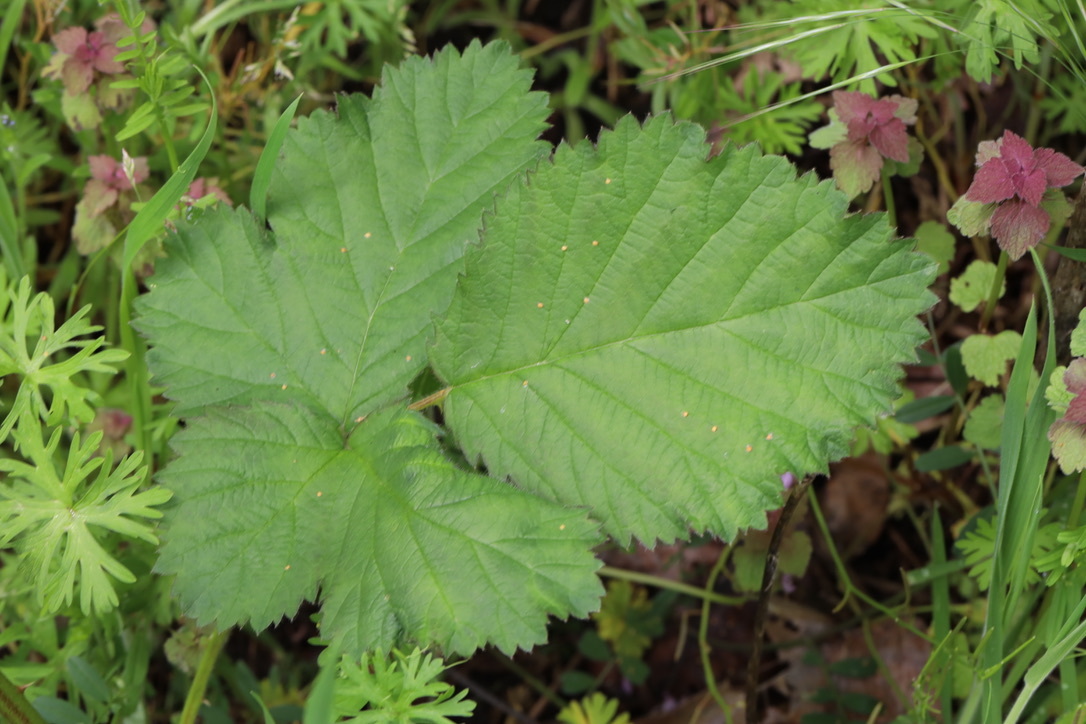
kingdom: Plantae
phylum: Tracheophyta
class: Magnoliopsida
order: Rosales
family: Rosaceae
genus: Rubus
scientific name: Rubus armeniacus
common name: Himalayan blackberry
